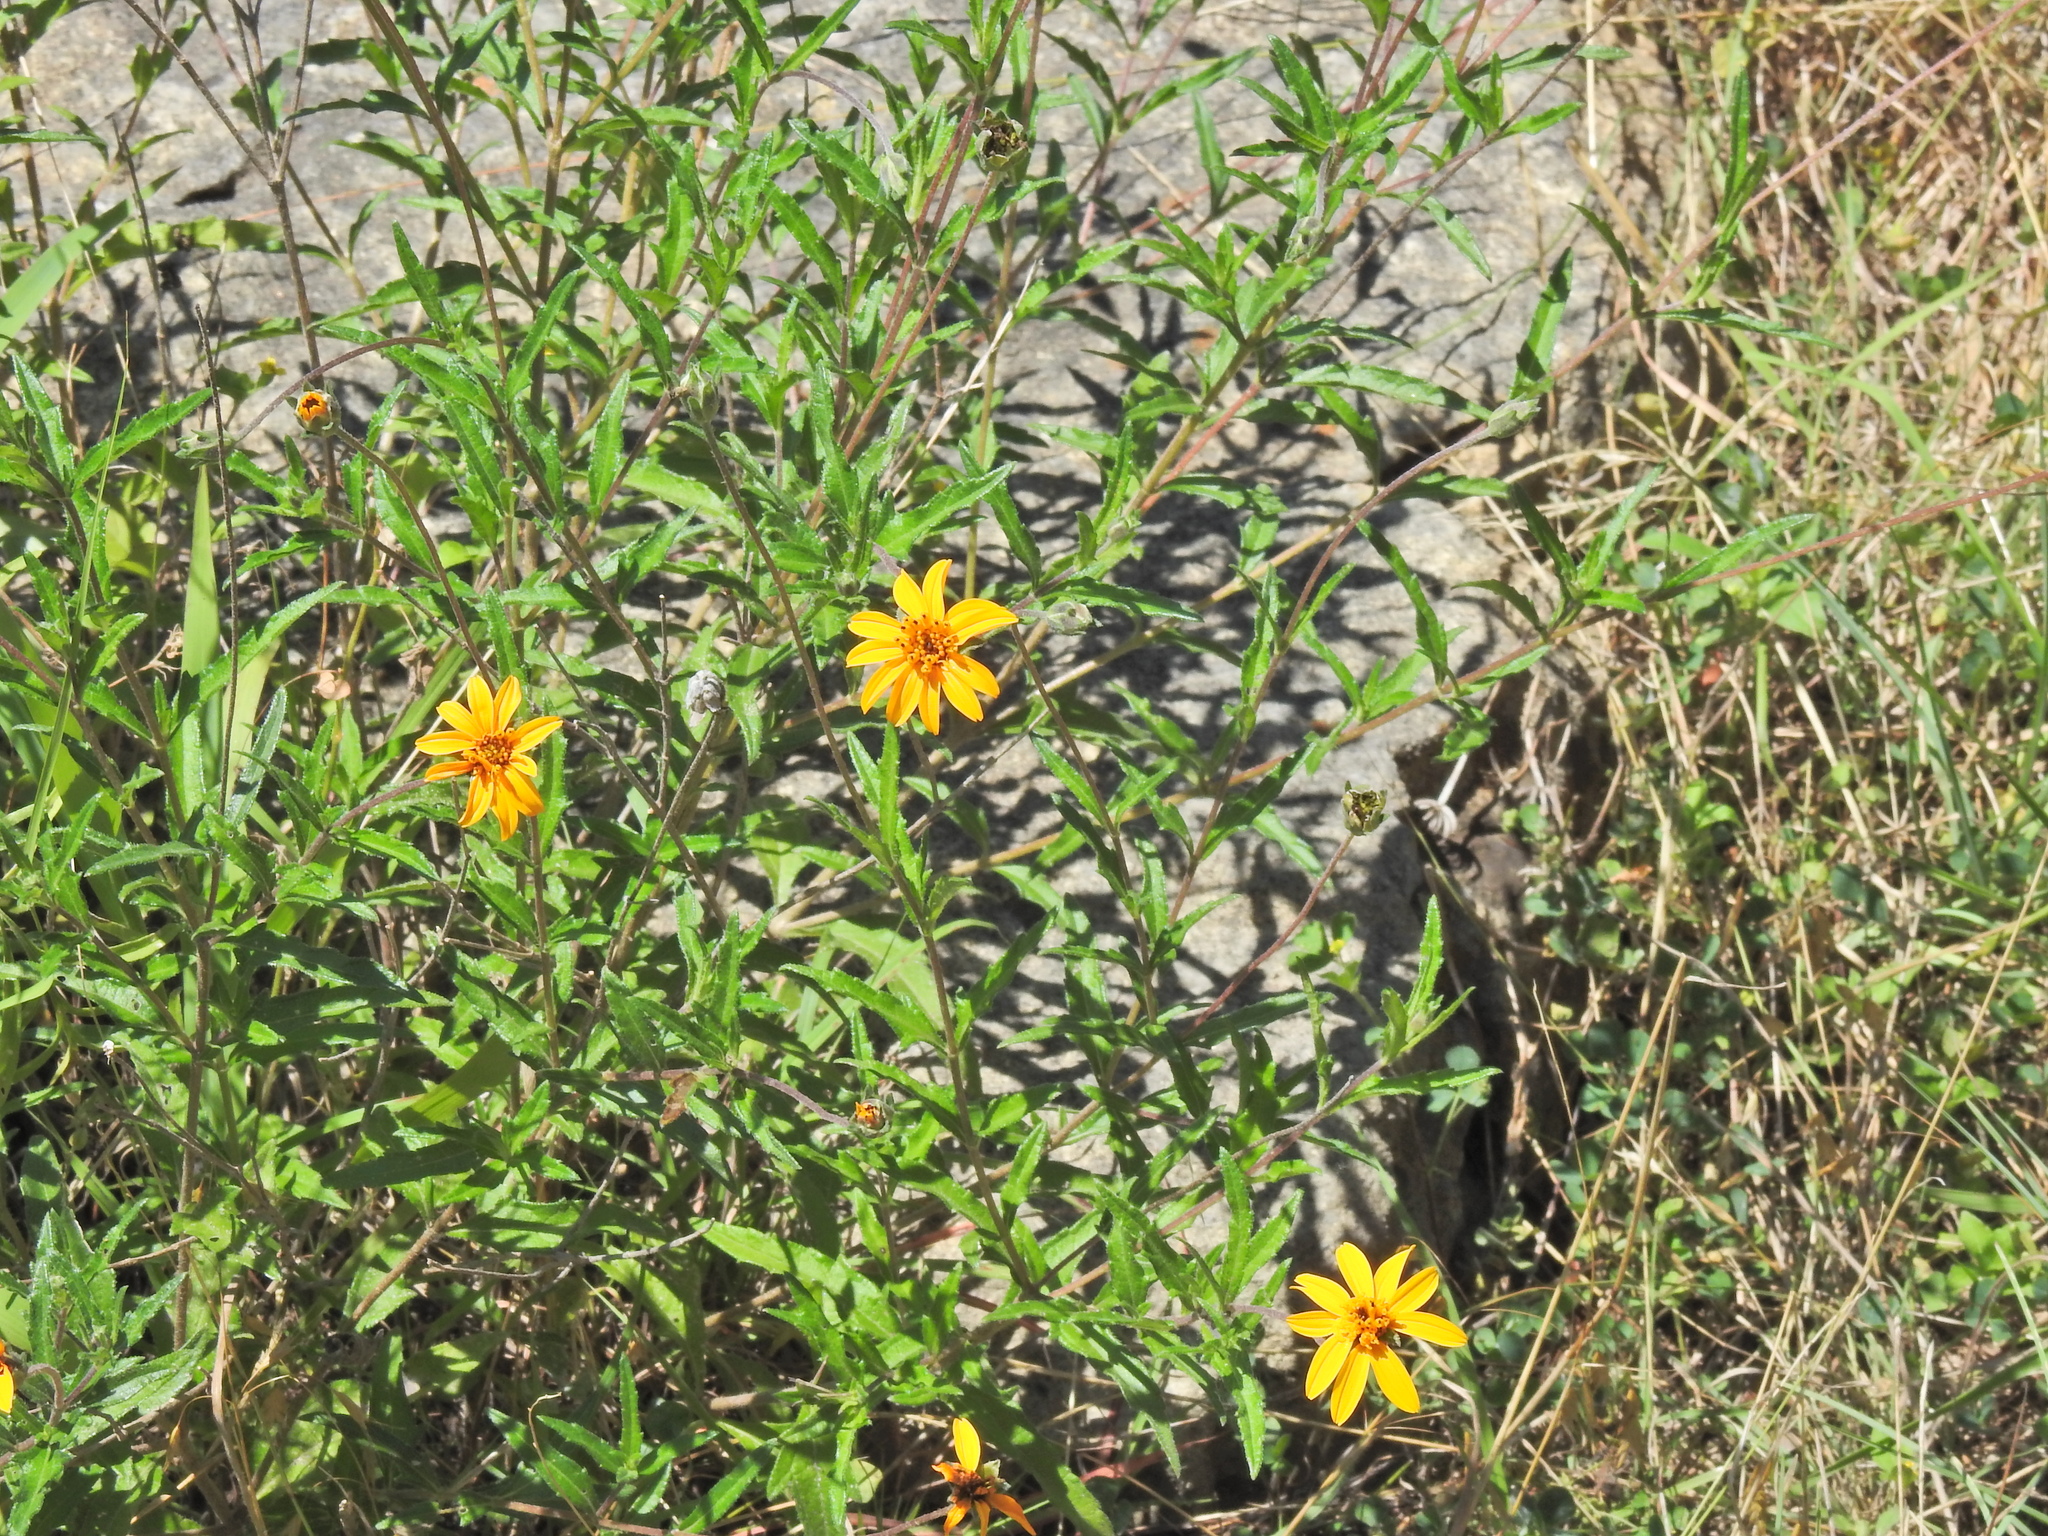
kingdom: Plantae
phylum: Tracheophyta
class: Magnoliopsida
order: Asterales
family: Asteraceae
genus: Wedelia
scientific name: Wedelia acapulcensis
